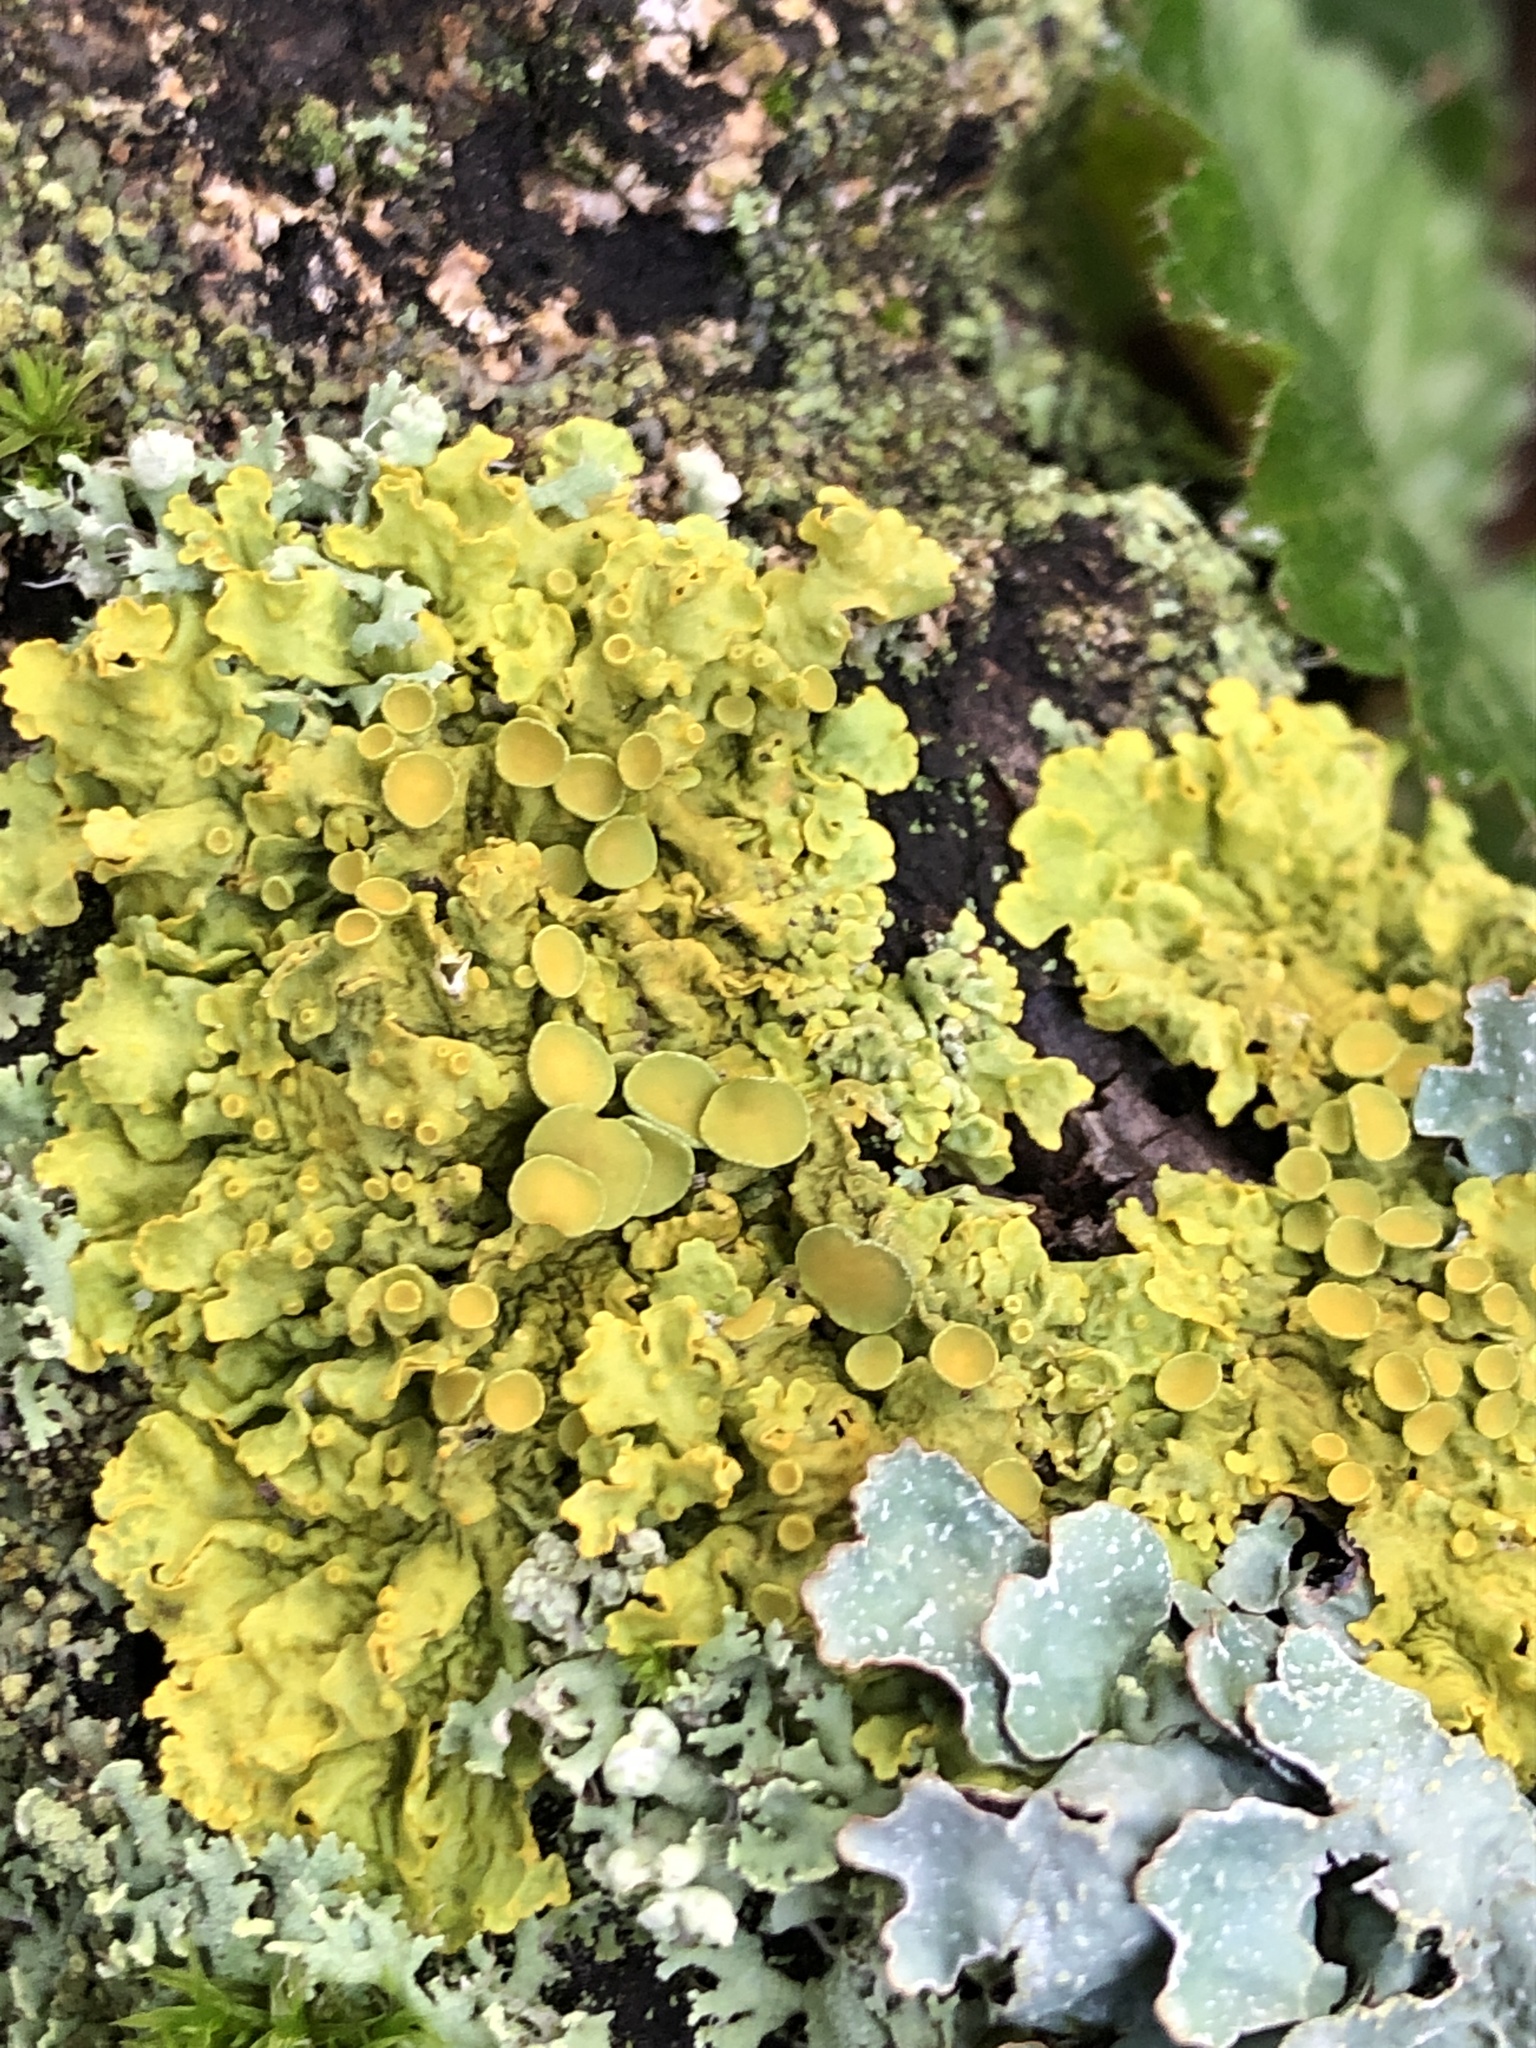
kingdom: Fungi
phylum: Ascomycota
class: Lecanoromycetes
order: Teloschistales
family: Teloschistaceae
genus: Xanthoria
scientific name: Xanthoria parietina
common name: Common orange lichen
